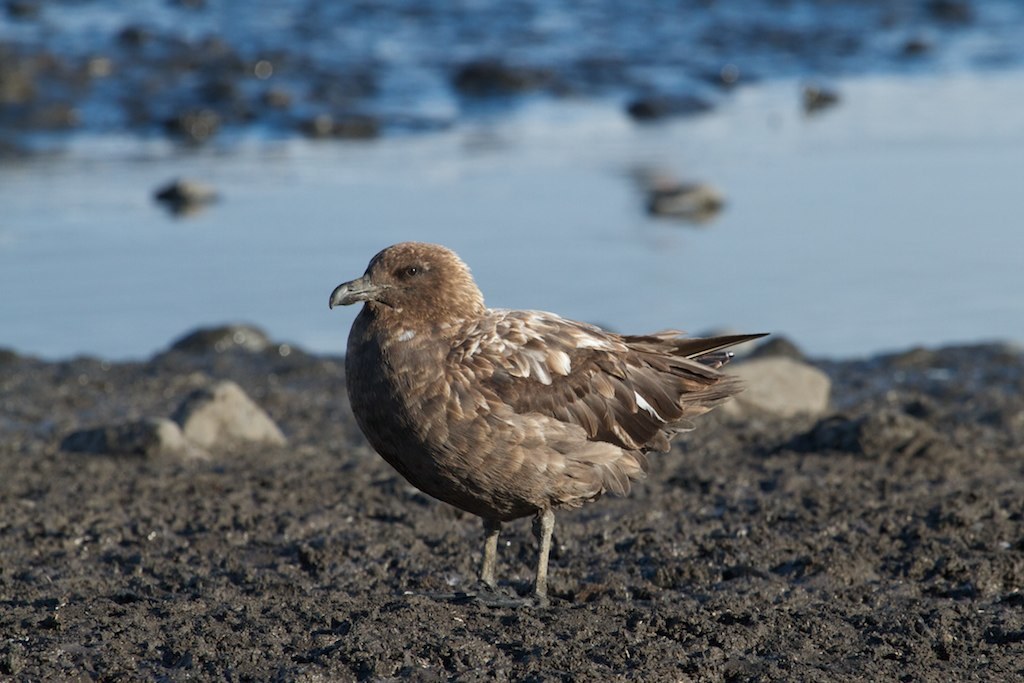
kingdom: Animalia
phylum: Chordata
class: Aves
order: Charadriiformes
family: Stercorariidae
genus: Stercorarius
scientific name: Stercorarius antarcticus
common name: Brown skua
